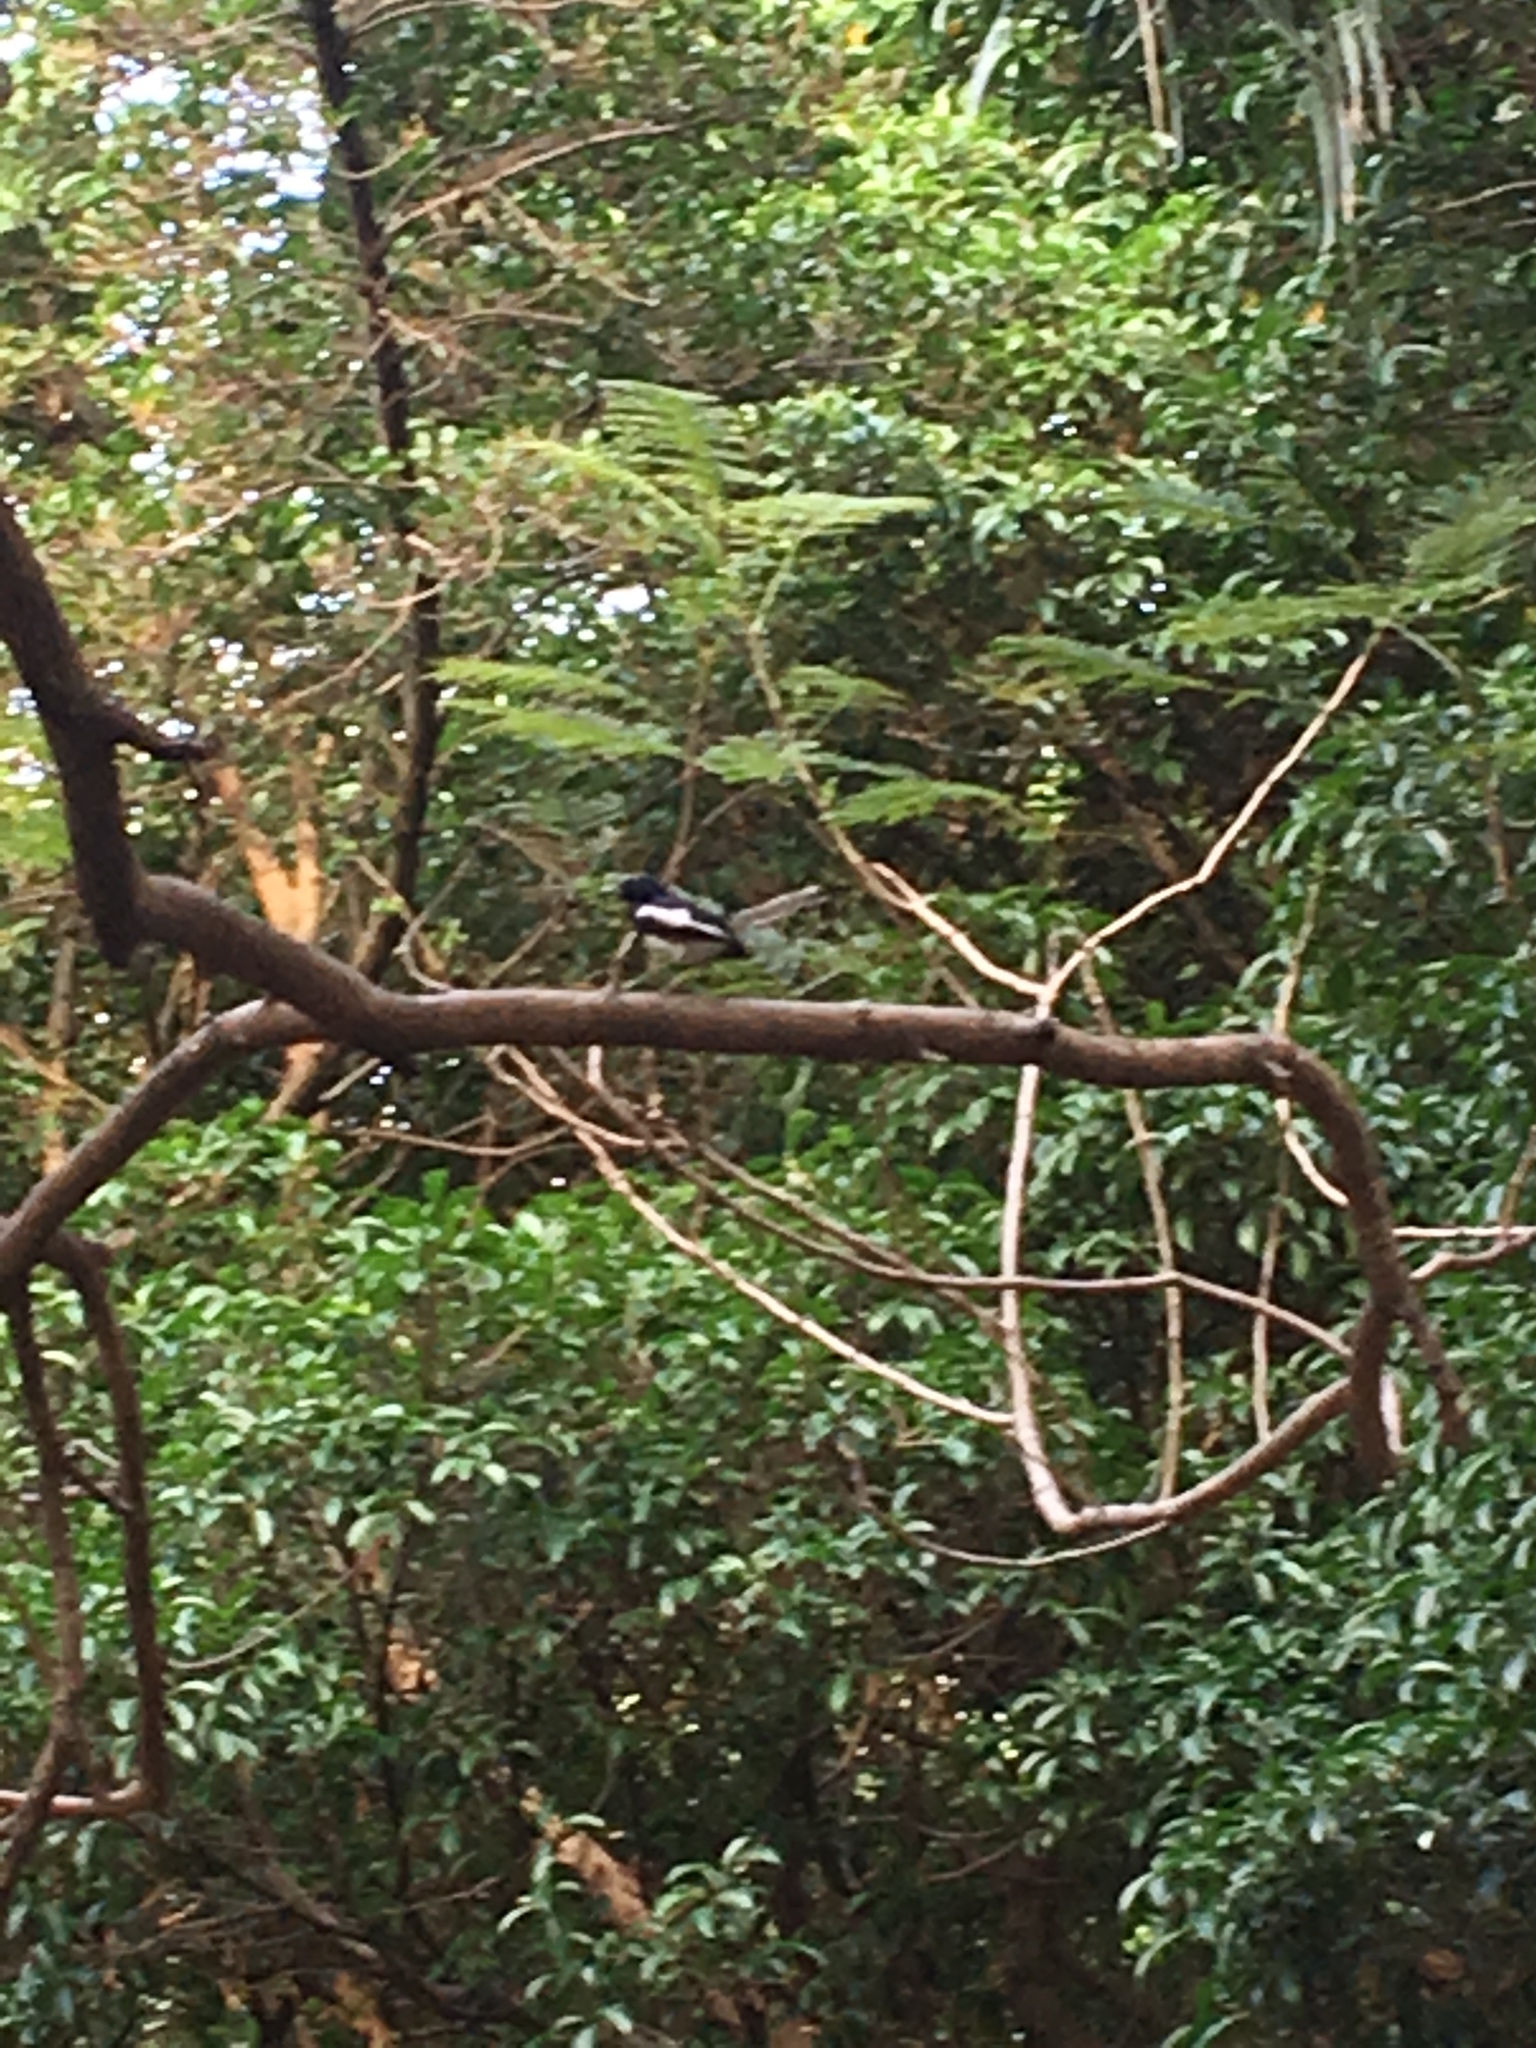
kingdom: Animalia
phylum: Chordata
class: Aves
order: Passeriformes
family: Muscicapidae
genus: Copsychus
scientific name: Copsychus saularis
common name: Oriental magpie-robin
